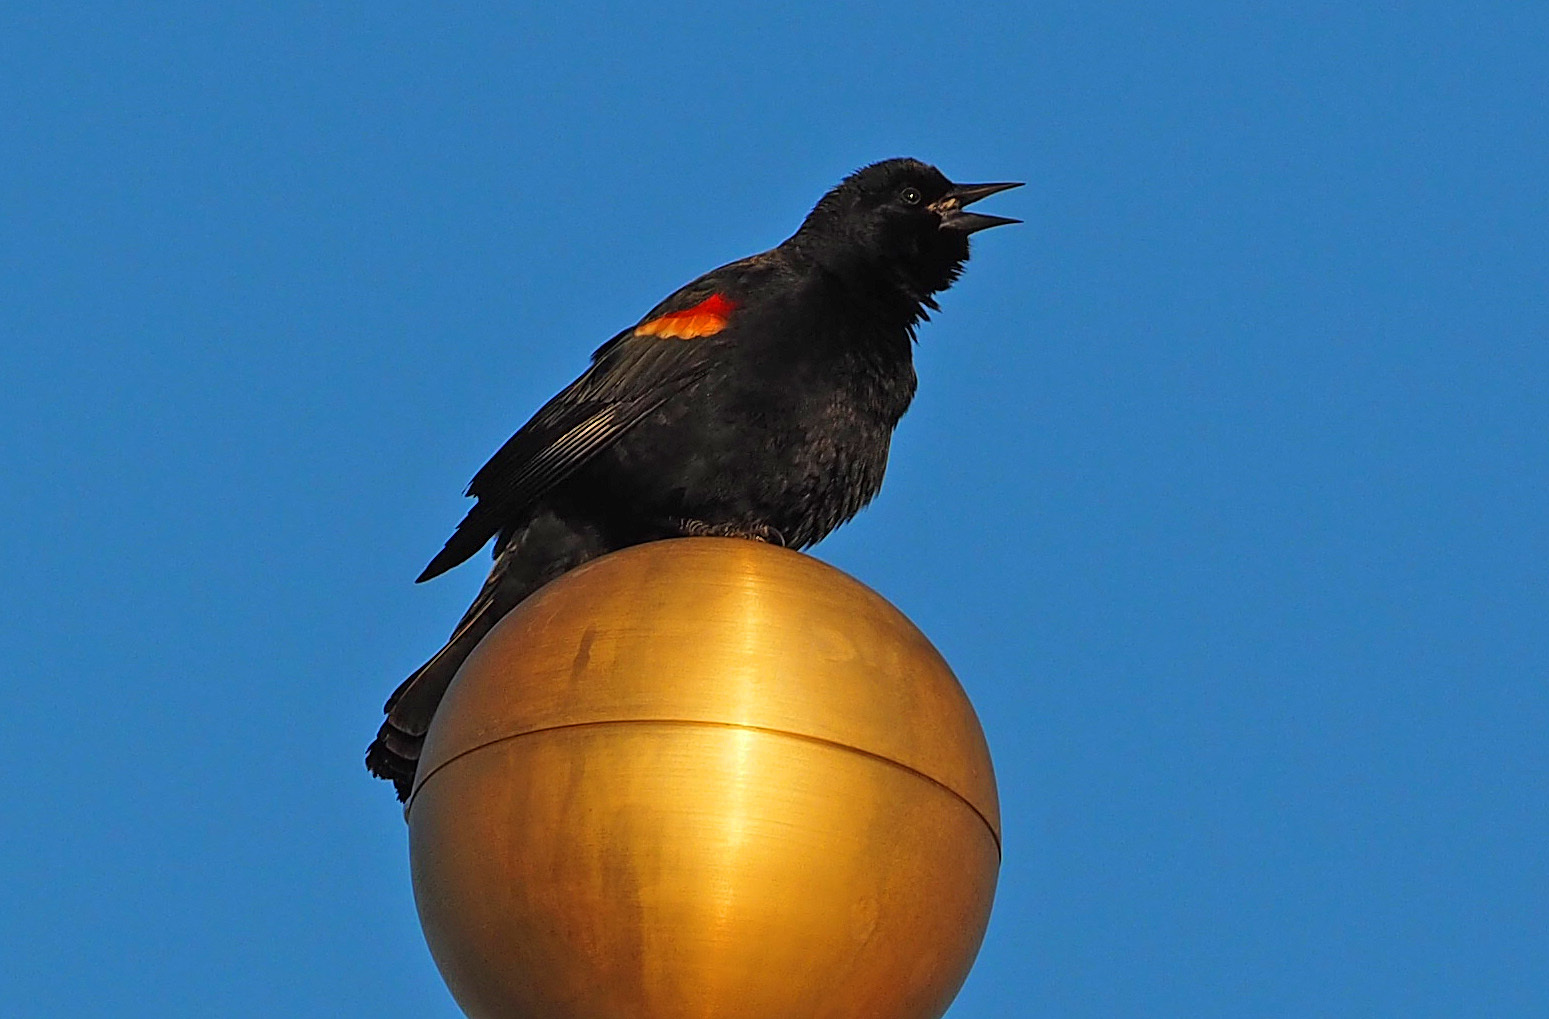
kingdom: Animalia
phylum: Chordata
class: Aves
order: Passeriformes
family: Icteridae
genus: Agelaius
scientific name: Agelaius phoeniceus
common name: Red-winged blackbird
